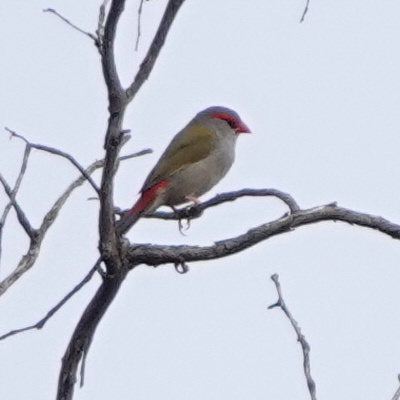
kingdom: Animalia
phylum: Chordata
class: Aves
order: Passeriformes
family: Estrildidae
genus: Neochmia
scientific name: Neochmia temporalis
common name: Red-browed finch
